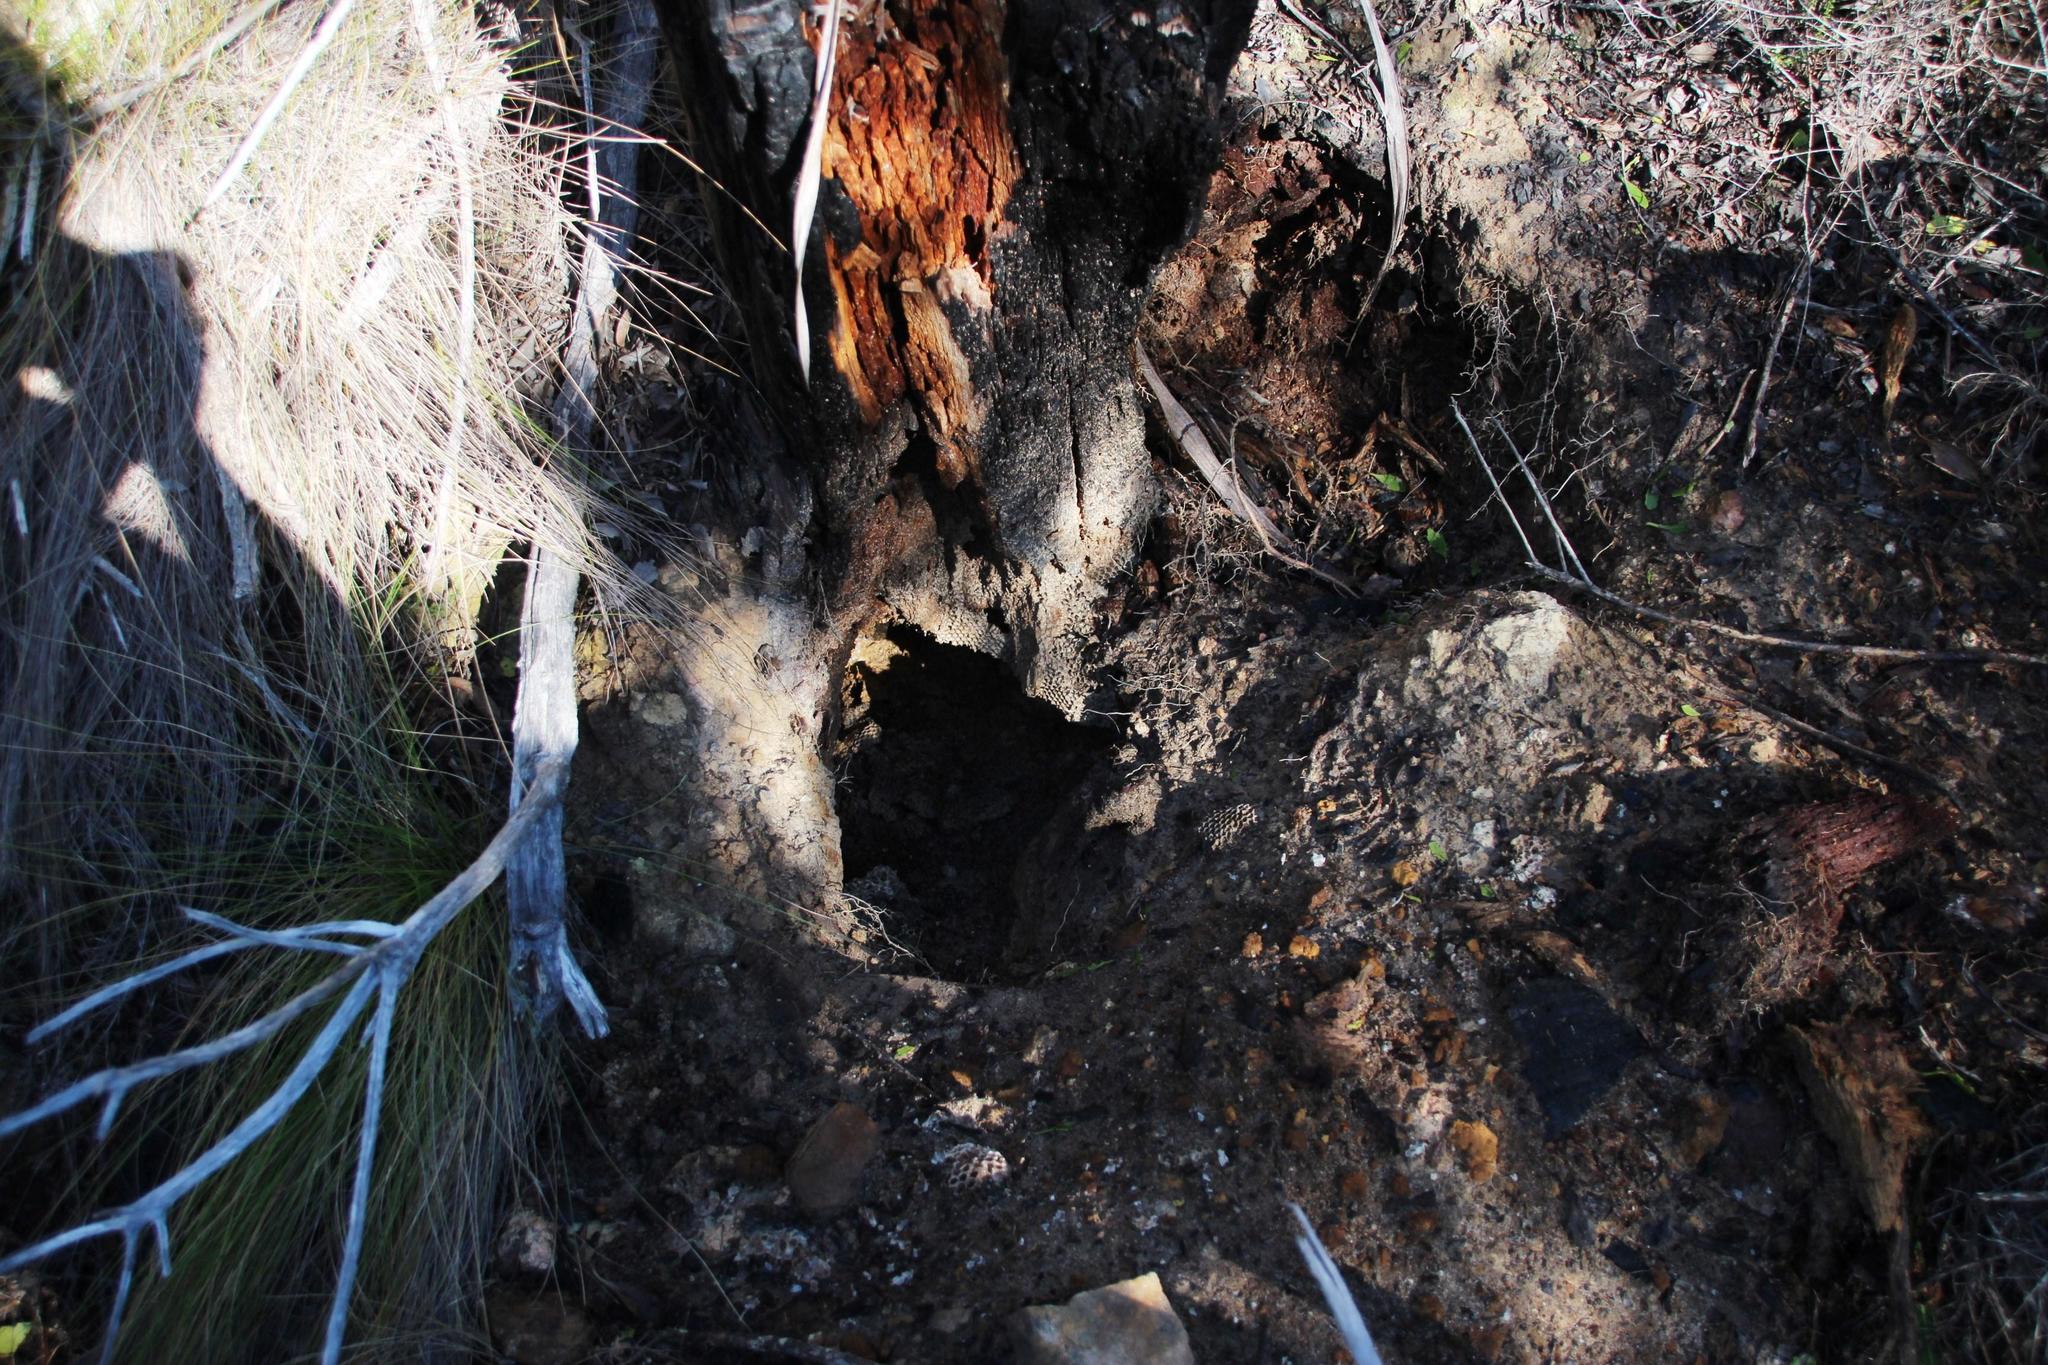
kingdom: Animalia
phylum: Chordata
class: Mammalia
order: Carnivora
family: Mustelidae
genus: Mellivora
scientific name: Mellivora capensis
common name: Honey badger
